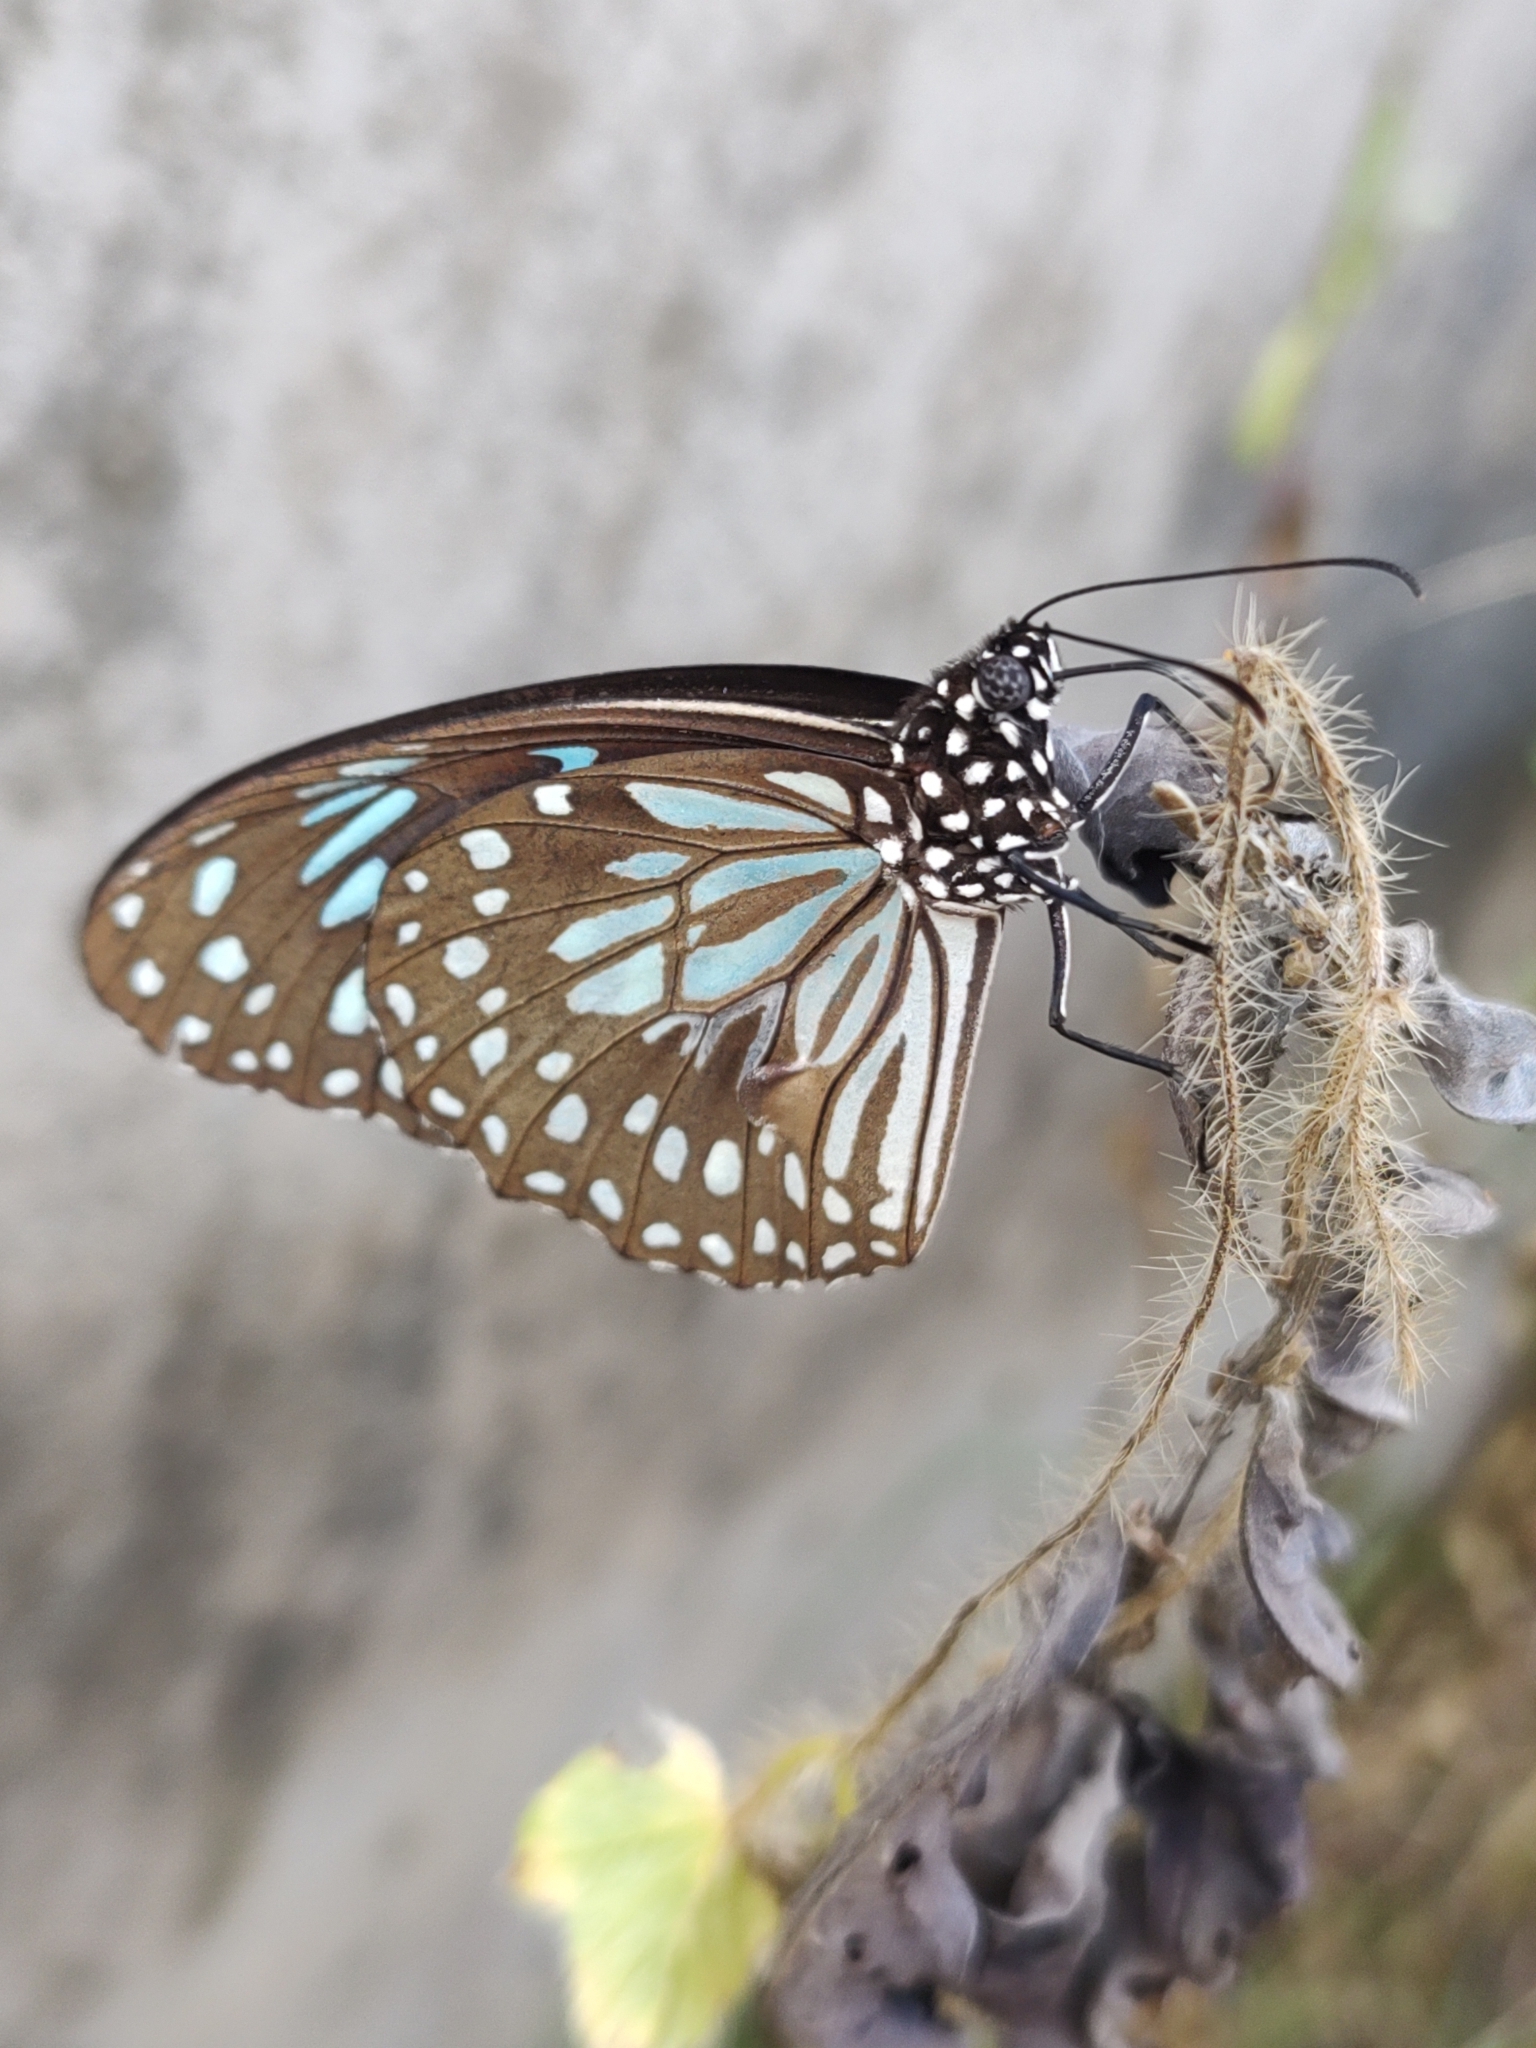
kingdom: Animalia
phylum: Arthropoda
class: Insecta
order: Lepidoptera
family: Nymphalidae
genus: Tirumala
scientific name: Tirumala septentrionis
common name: Dark blue tiger butterfly
